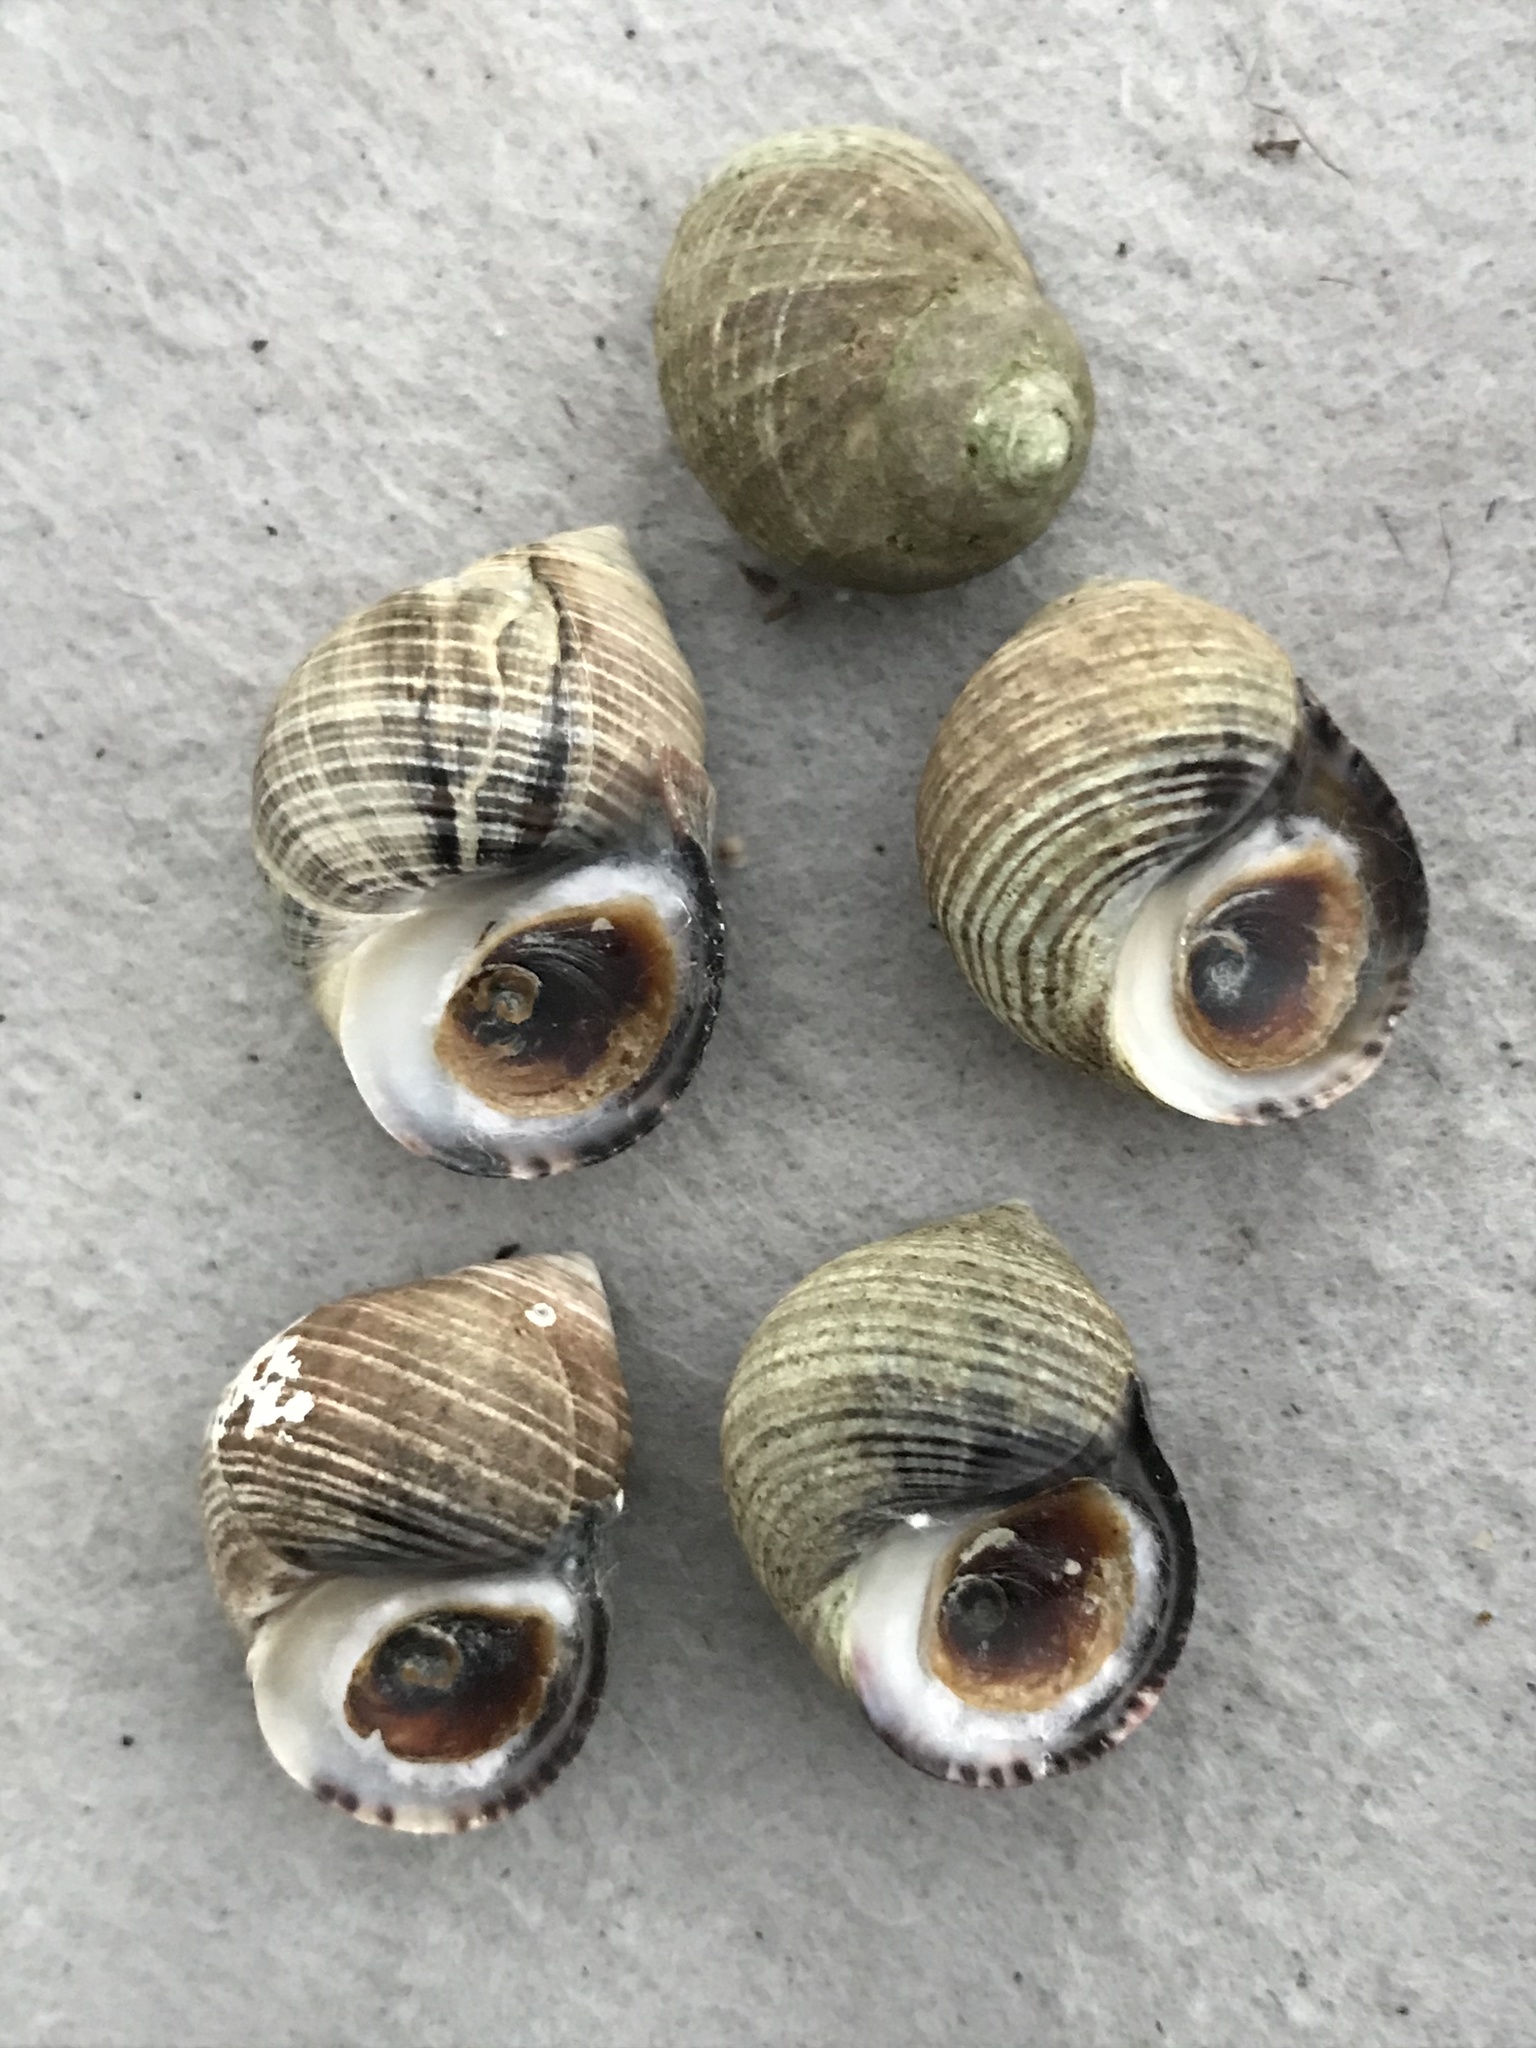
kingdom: Animalia
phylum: Mollusca
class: Gastropoda
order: Littorinimorpha
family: Littorinidae
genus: Littorina
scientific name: Littorina littorea
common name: Common periwinkle
